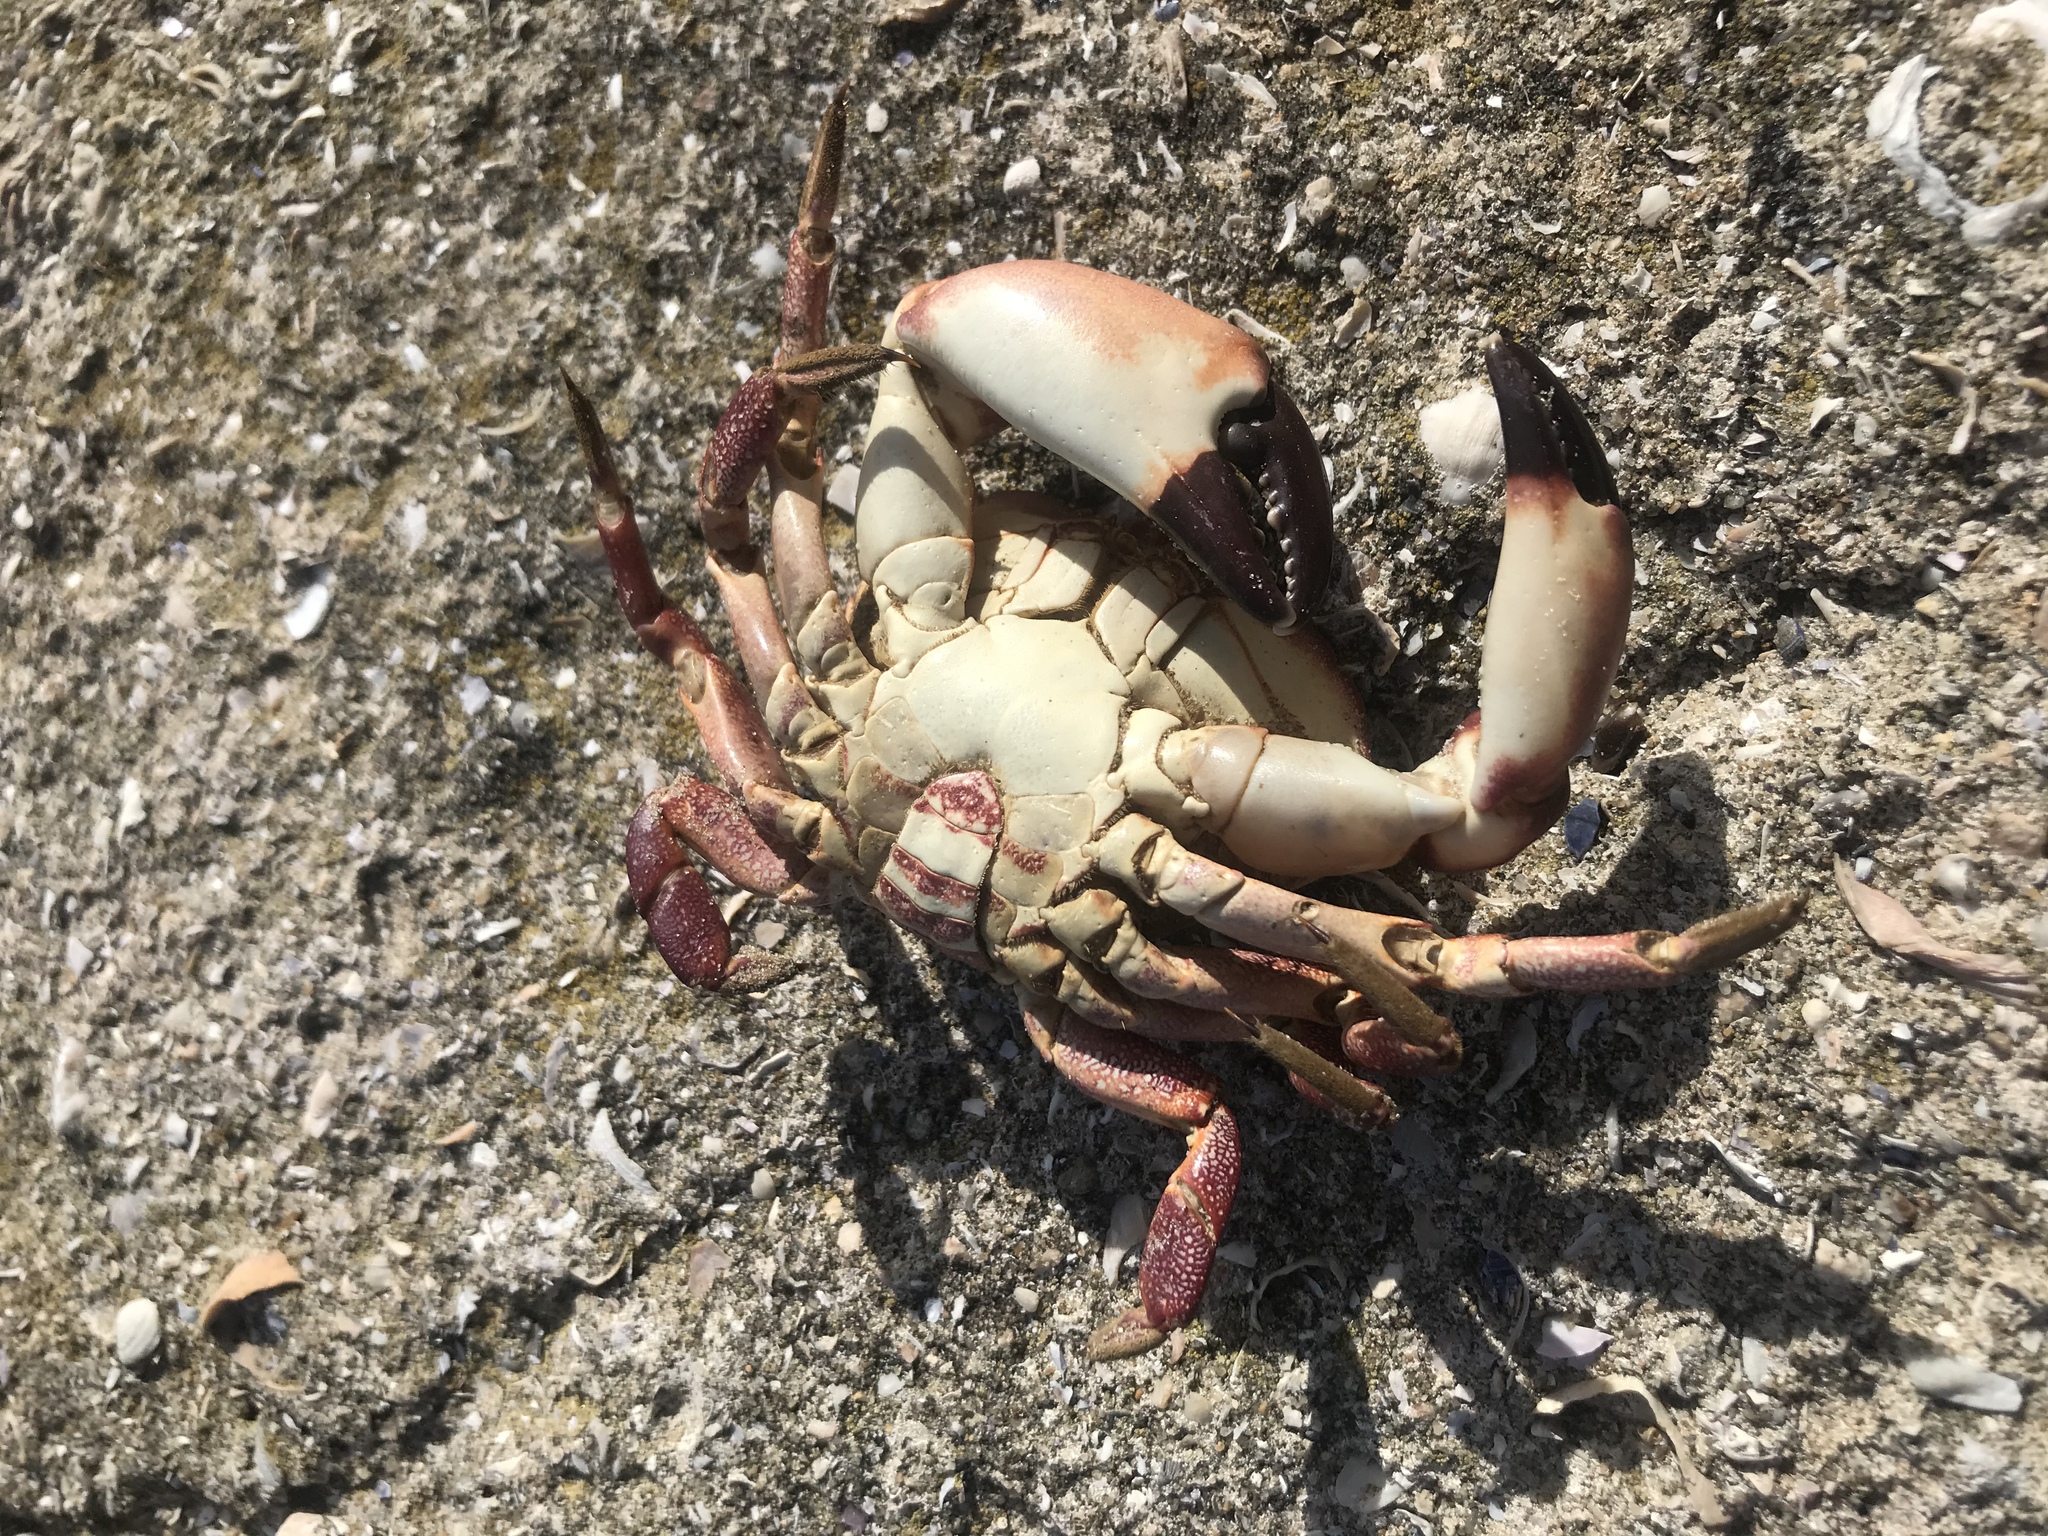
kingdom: Animalia
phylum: Arthropoda
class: Malacostraca
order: Decapoda
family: Platyxanthidae
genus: Danielethus
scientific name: Danielethus crenulatus
